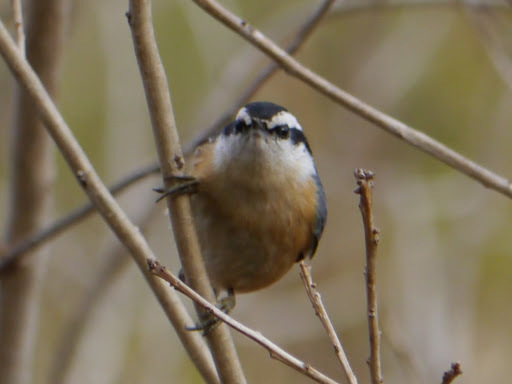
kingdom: Animalia
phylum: Chordata
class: Aves
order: Passeriformes
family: Sittidae
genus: Sitta
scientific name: Sitta canadensis
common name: Red-breasted nuthatch
